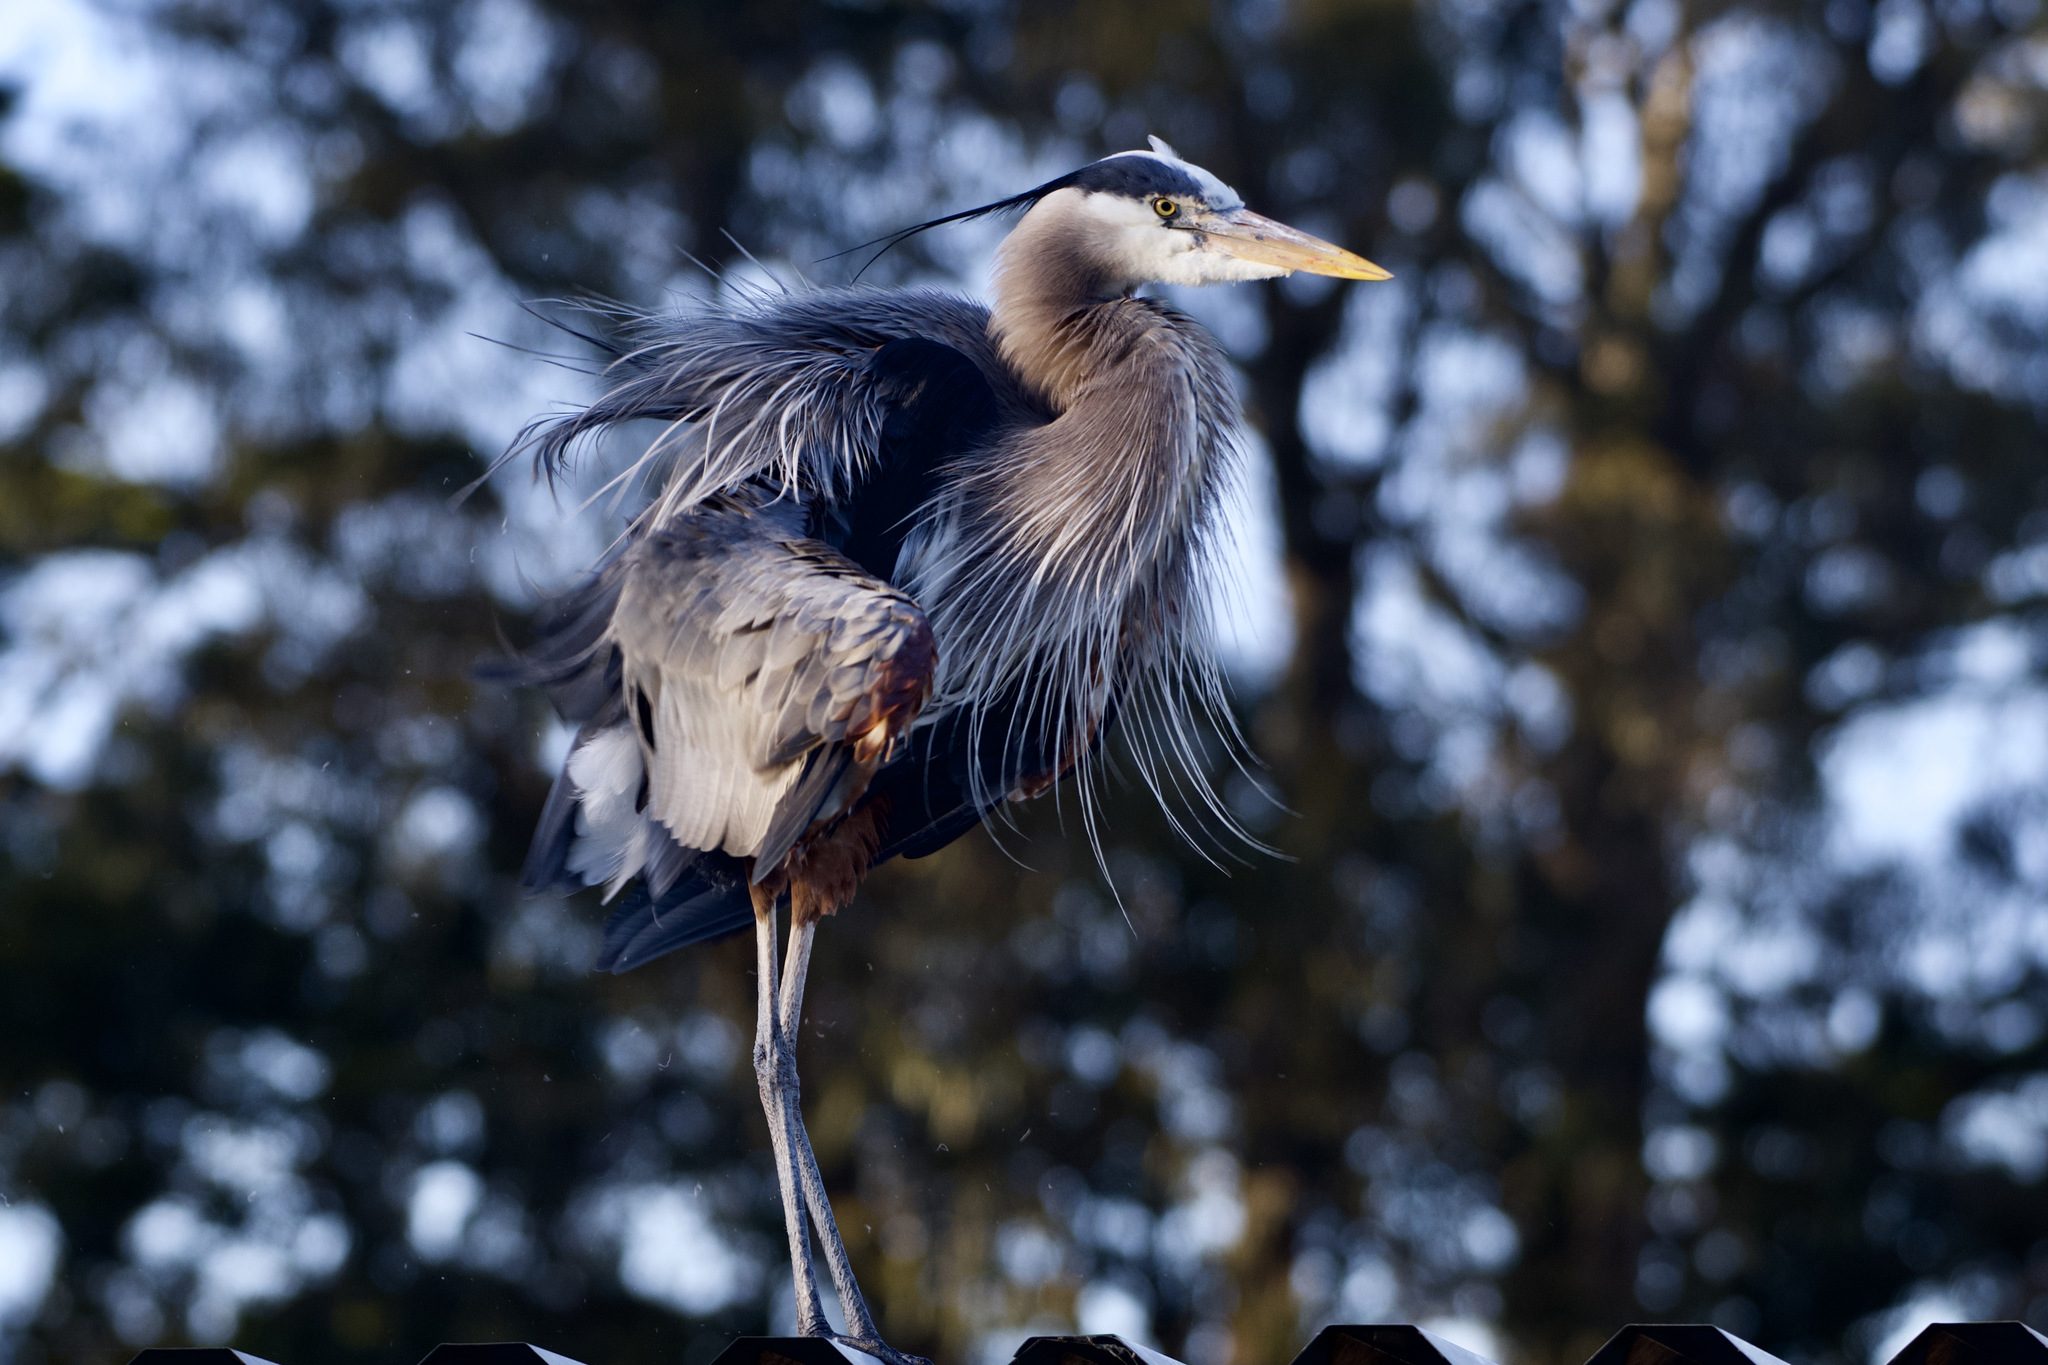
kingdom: Animalia
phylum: Chordata
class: Aves
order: Pelecaniformes
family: Ardeidae
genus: Ardea
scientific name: Ardea herodias
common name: Great blue heron
